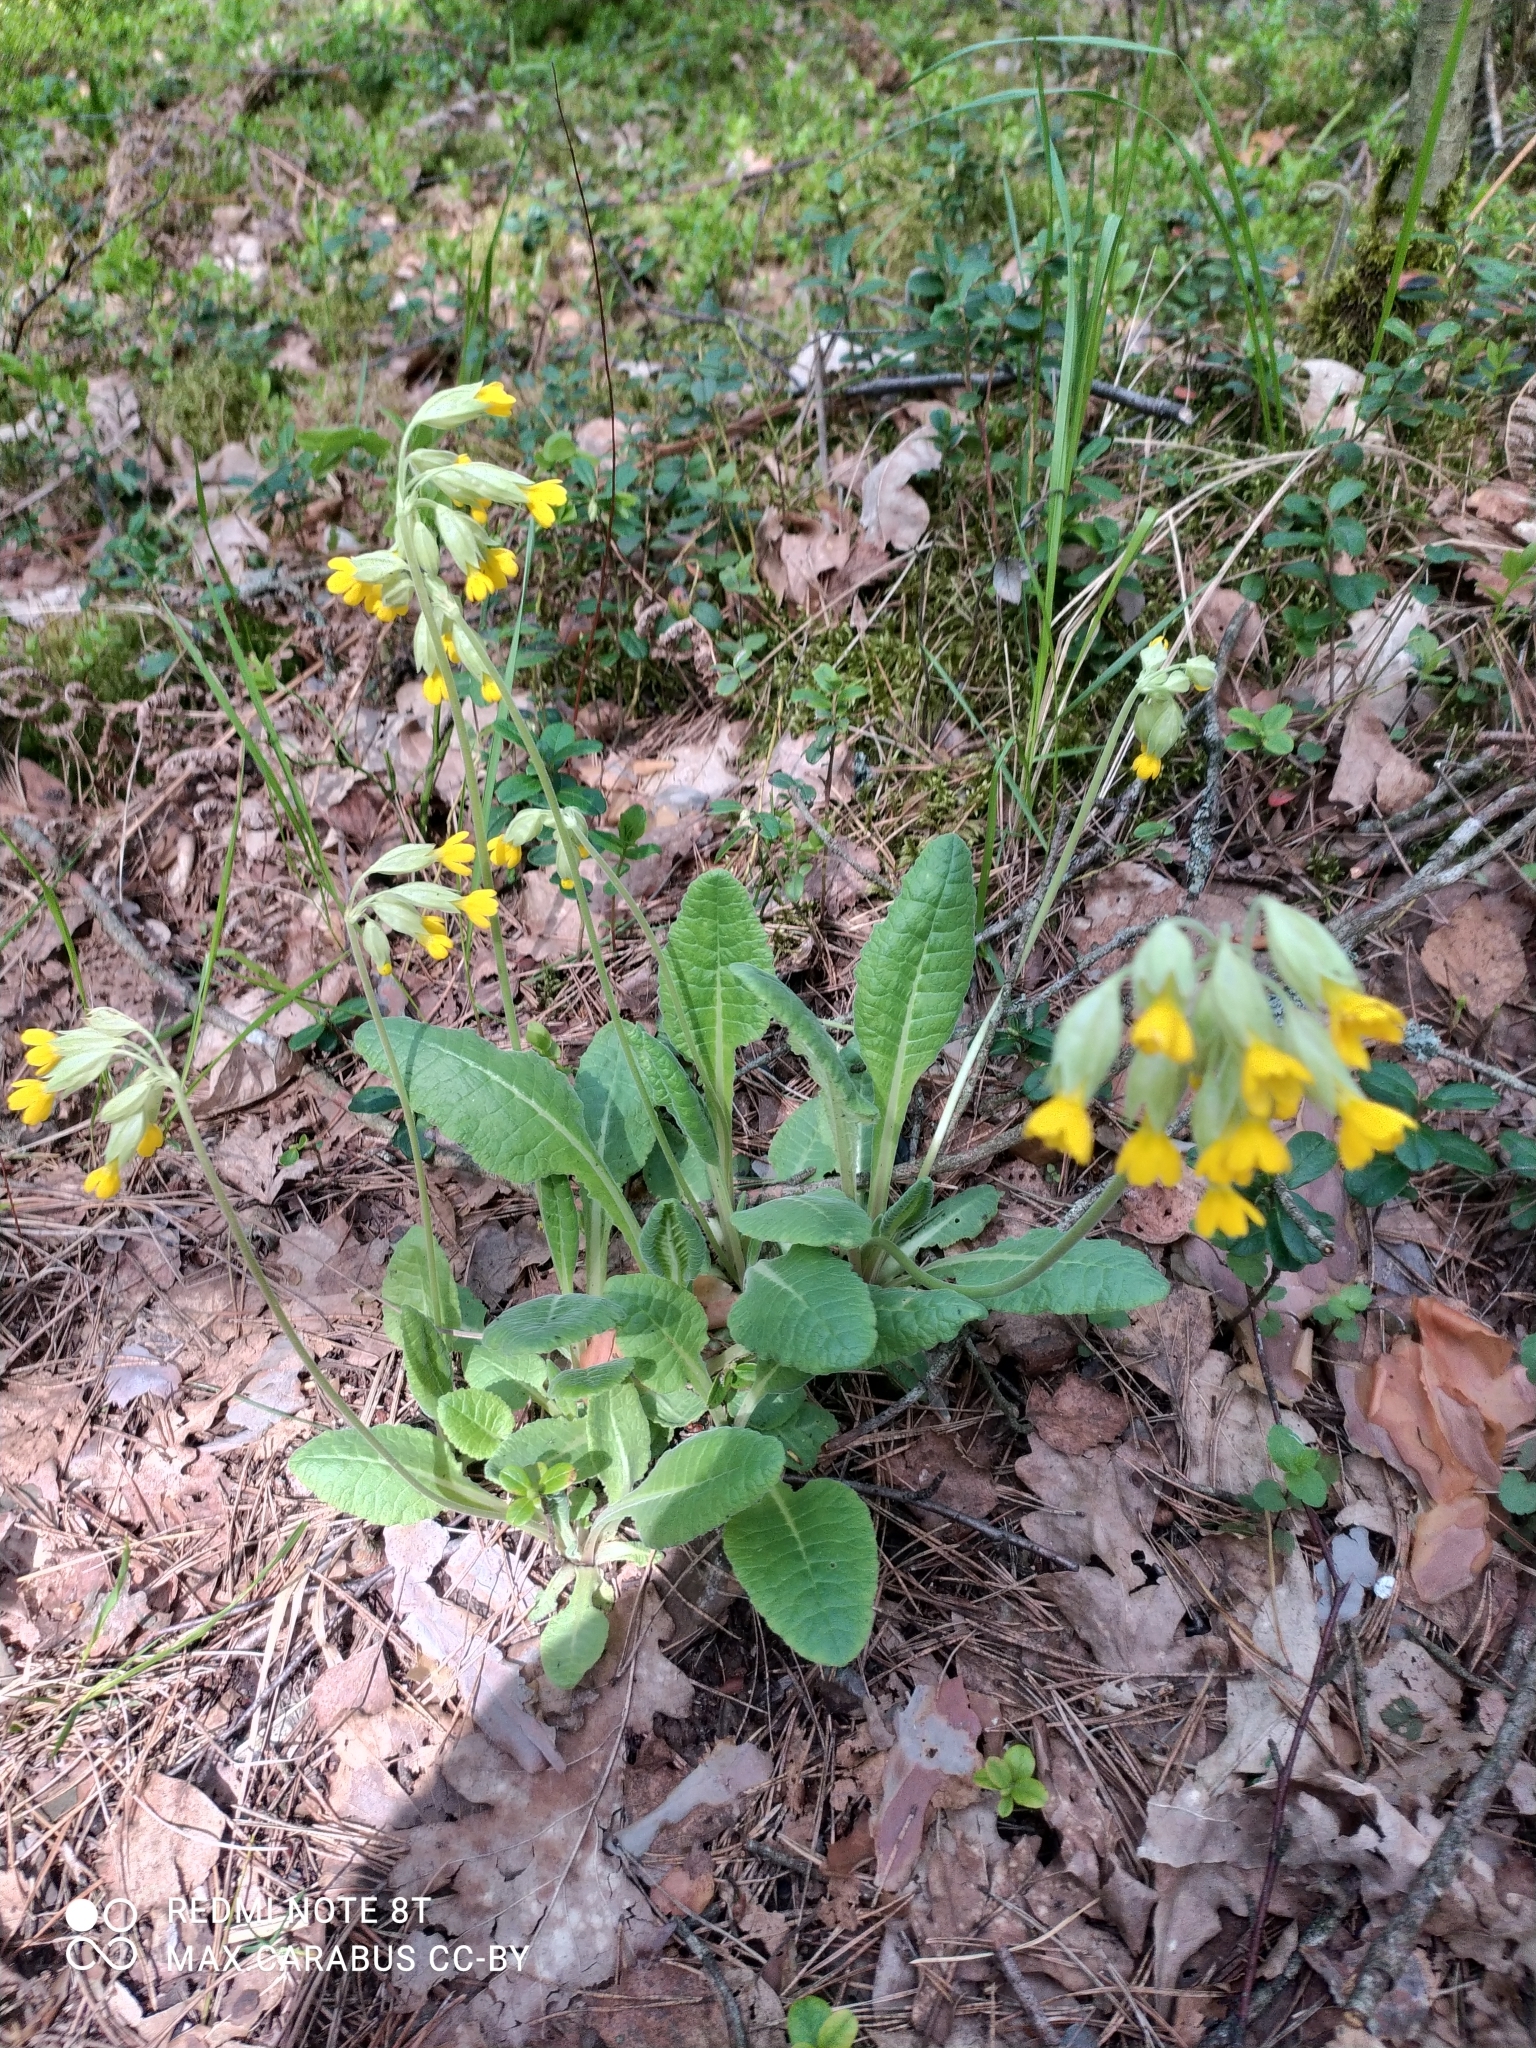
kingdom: Plantae
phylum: Tracheophyta
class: Magnoliopsida
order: Ericales
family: Primulaceae
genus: Primula
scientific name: Primula veris
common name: Cowslip
